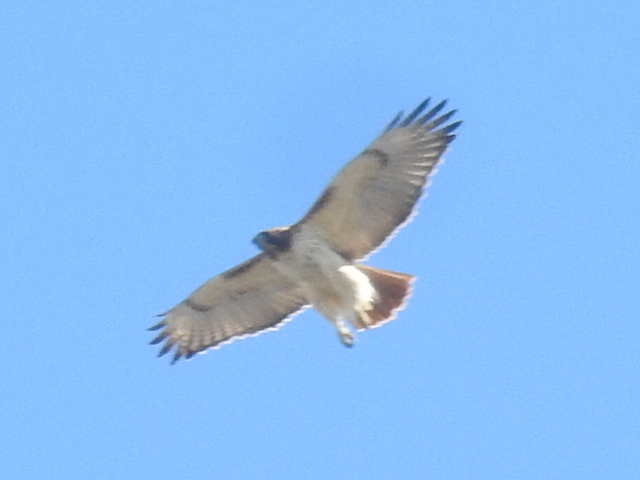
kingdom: Animalia
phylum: Chordata
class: Aves
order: Accipitriformes
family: Accipitridae
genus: Buteo
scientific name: Buteo jamaicensis
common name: Red-tailed hawk
